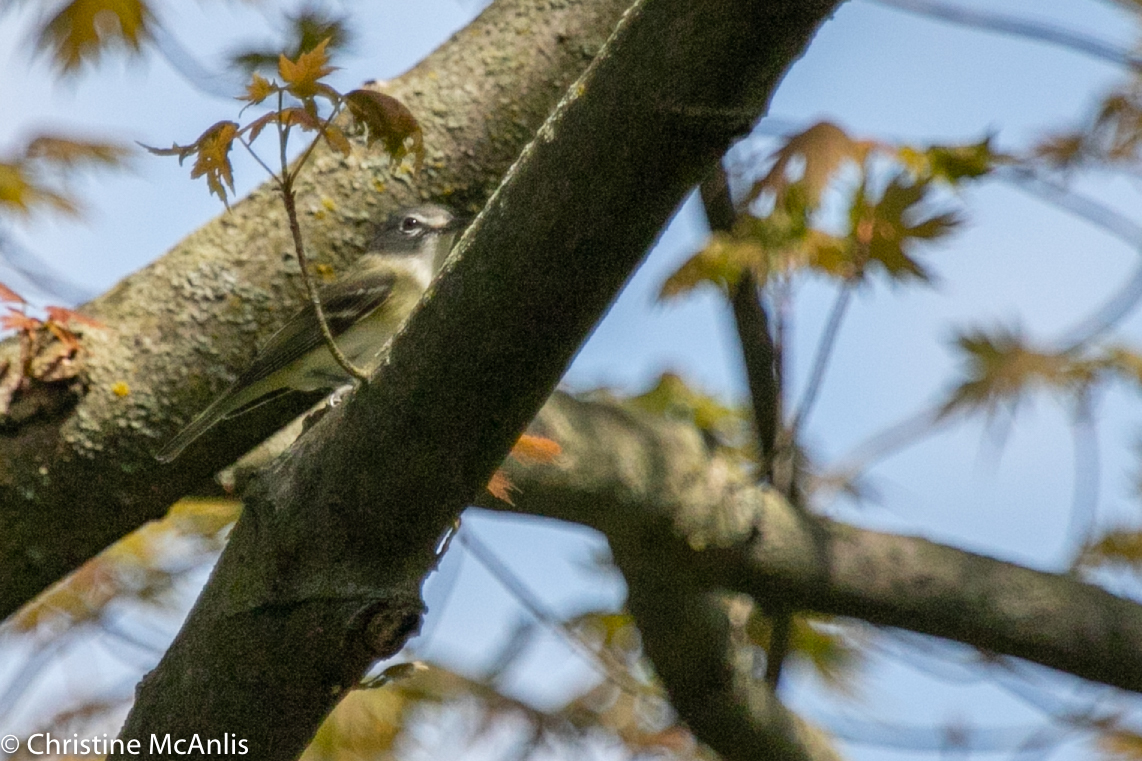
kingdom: Animalia
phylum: Chordata
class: Aves
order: Passeriformes
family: Vireonidae
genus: Vireo
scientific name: Vireo solitarius
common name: Blue-headed vireo
